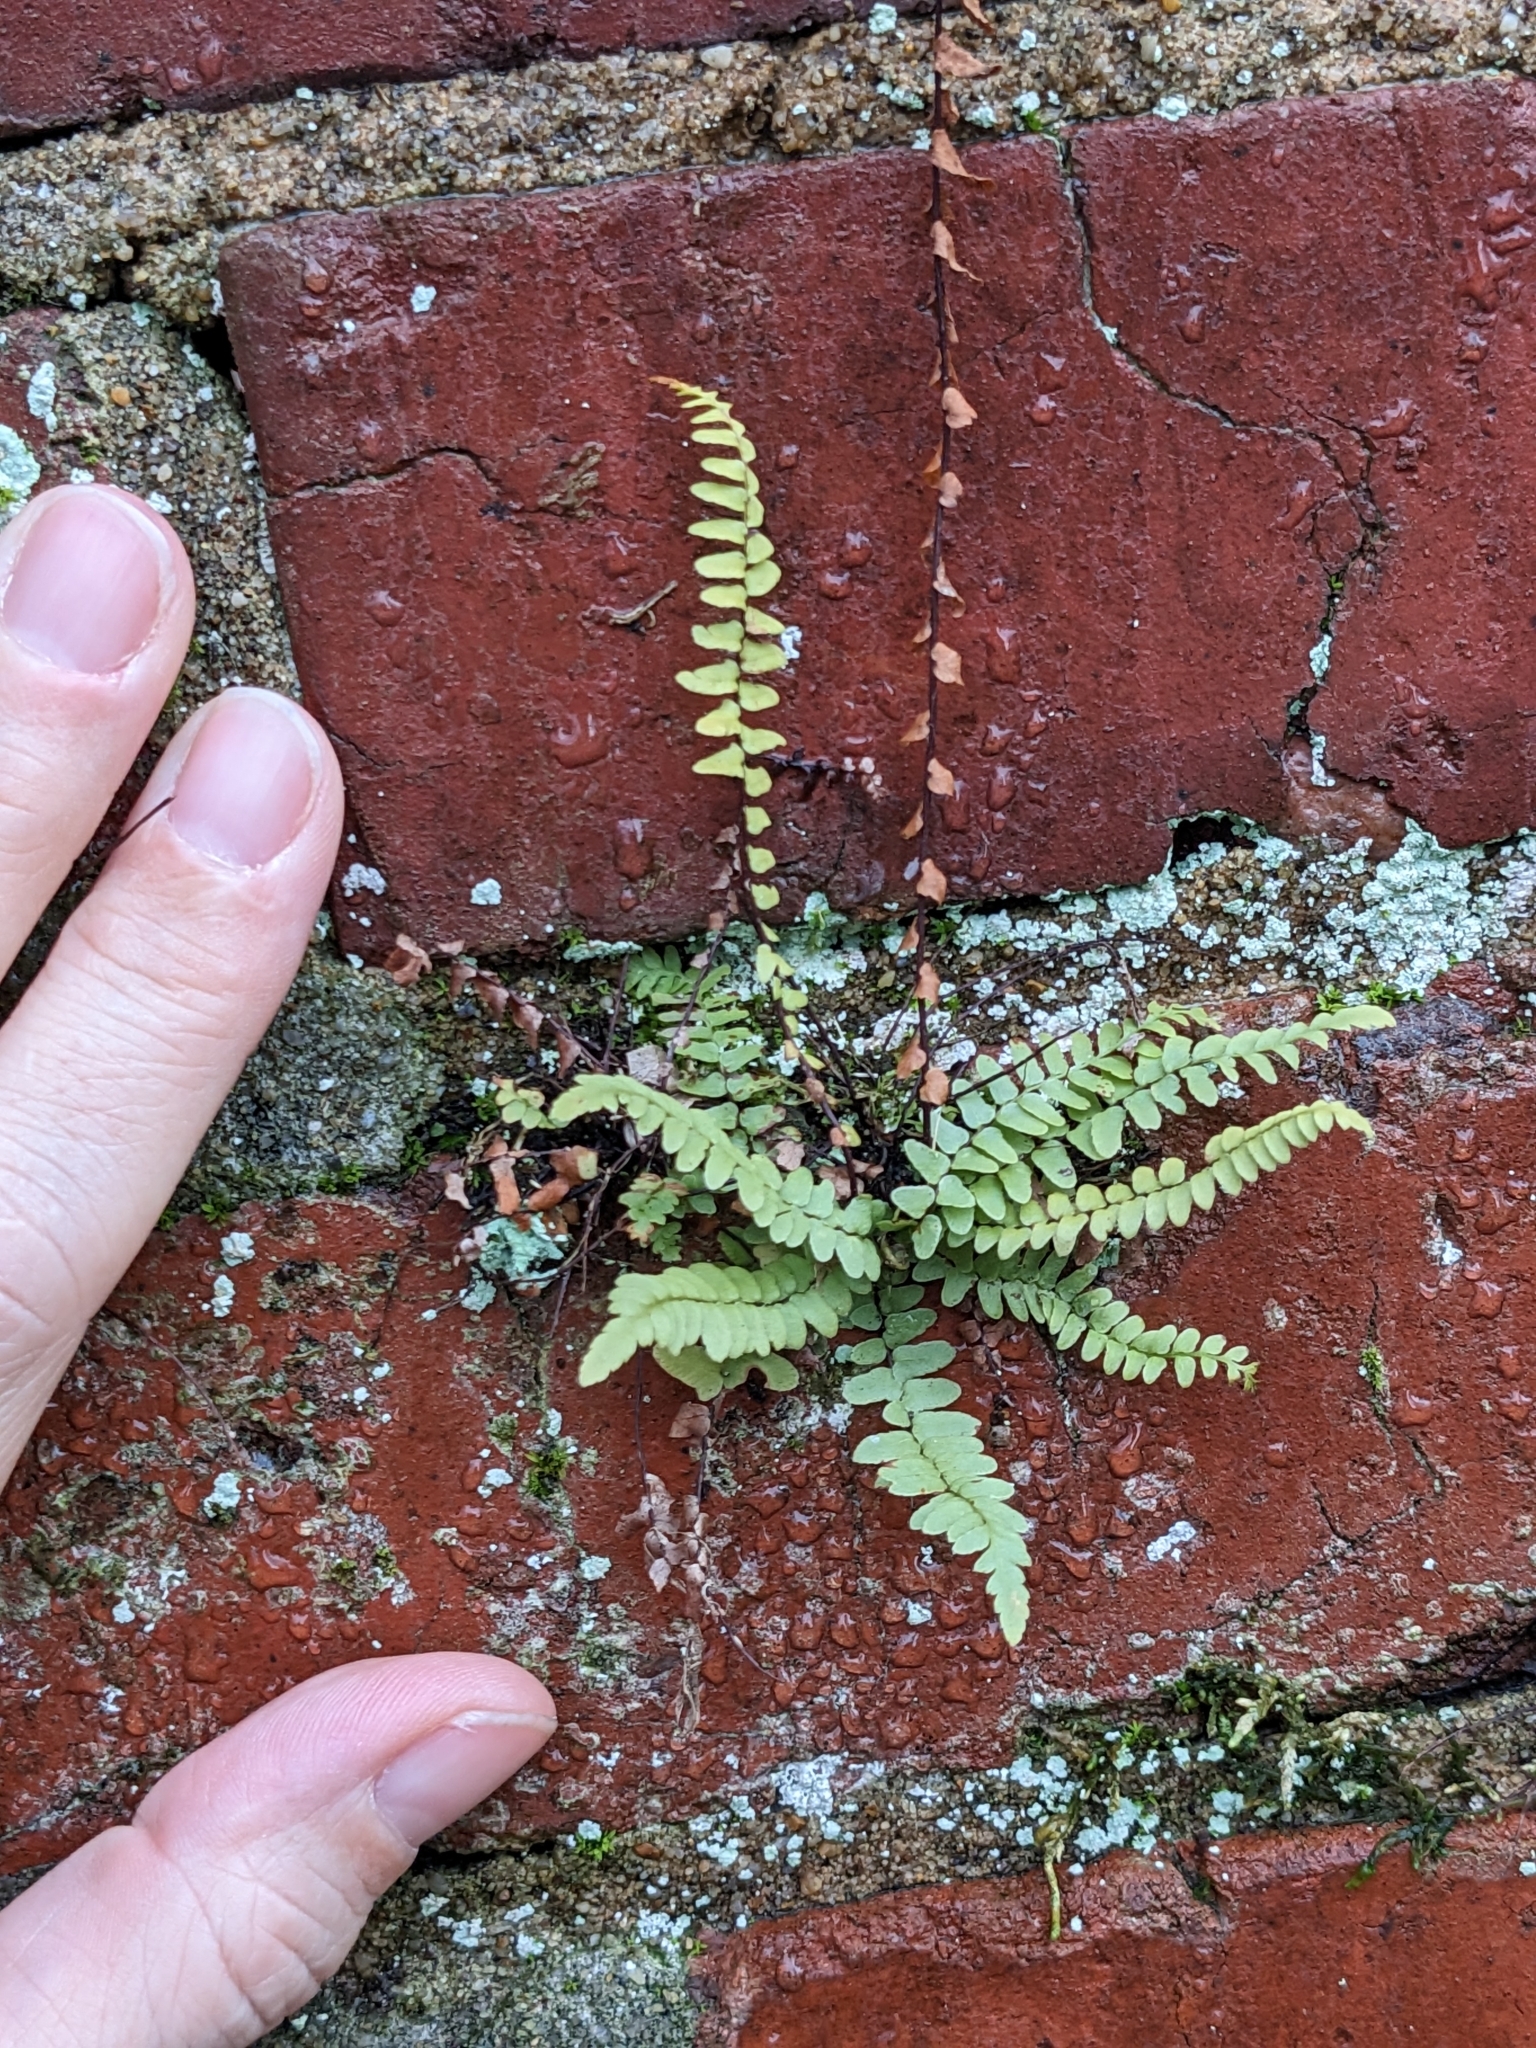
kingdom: Plantae
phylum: Tracheophyta
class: Polypodiopsida
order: Polypodiales
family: Aspleniaceae
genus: Asplenium
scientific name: Asplenium platyneuron
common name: Ebony spleenwort
